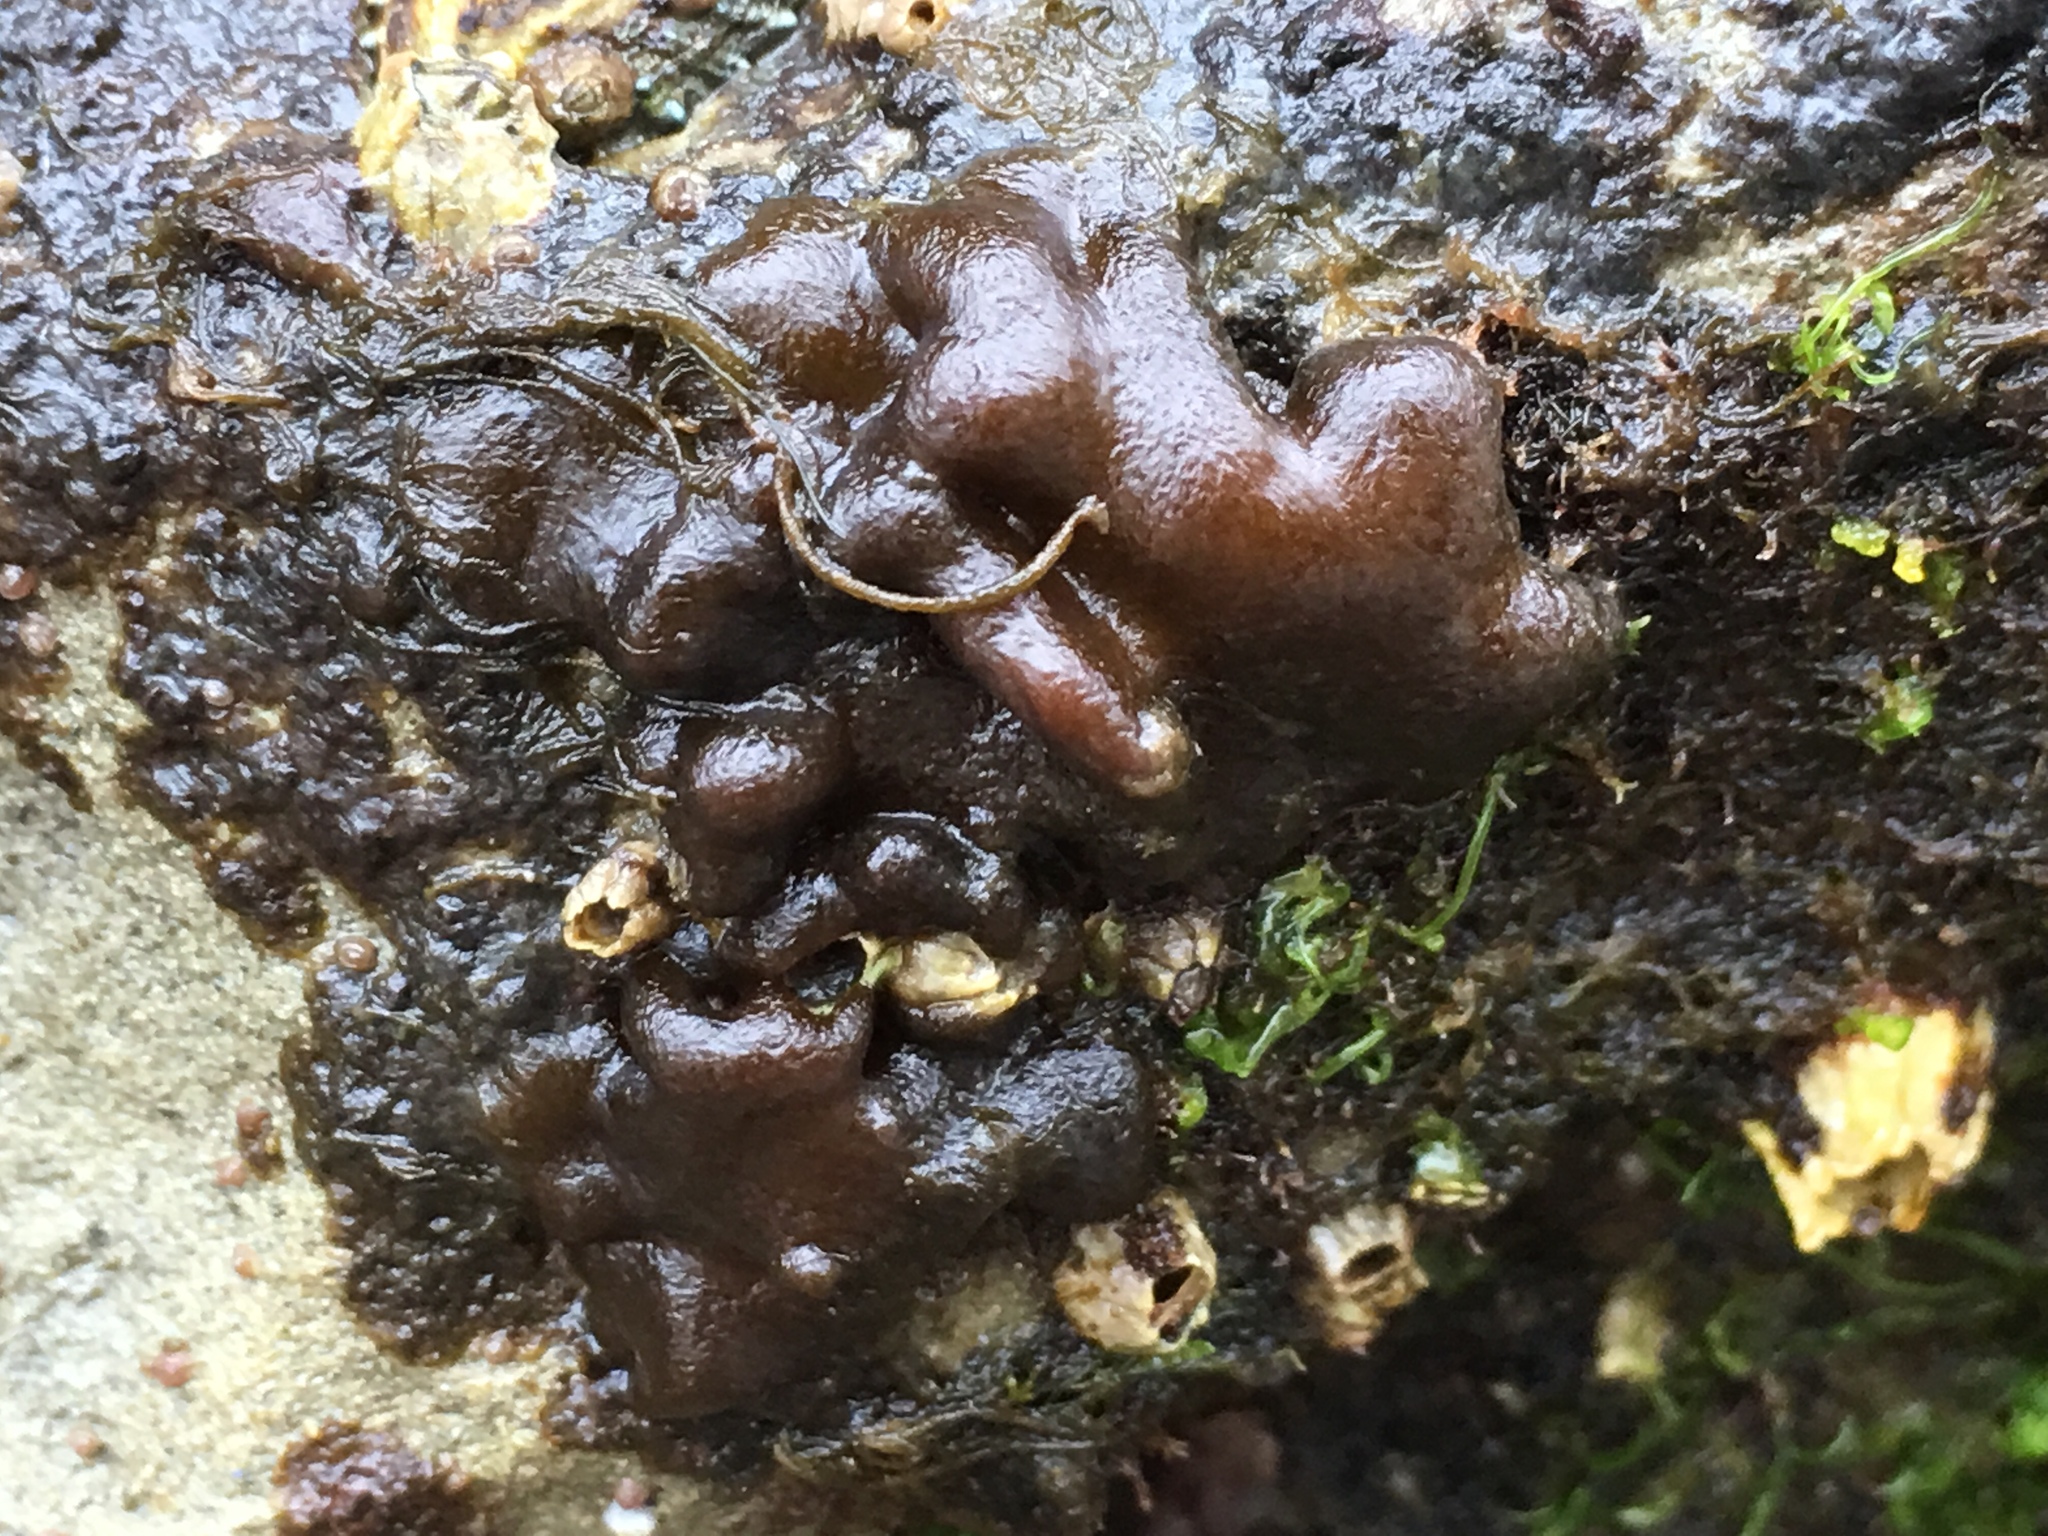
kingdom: Chromista
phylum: Ochrophyta
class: Phaeophyceae
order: Ectocarpales
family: Petrospongiaceae
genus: Petrospongium
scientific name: Petrospongium rugosum
